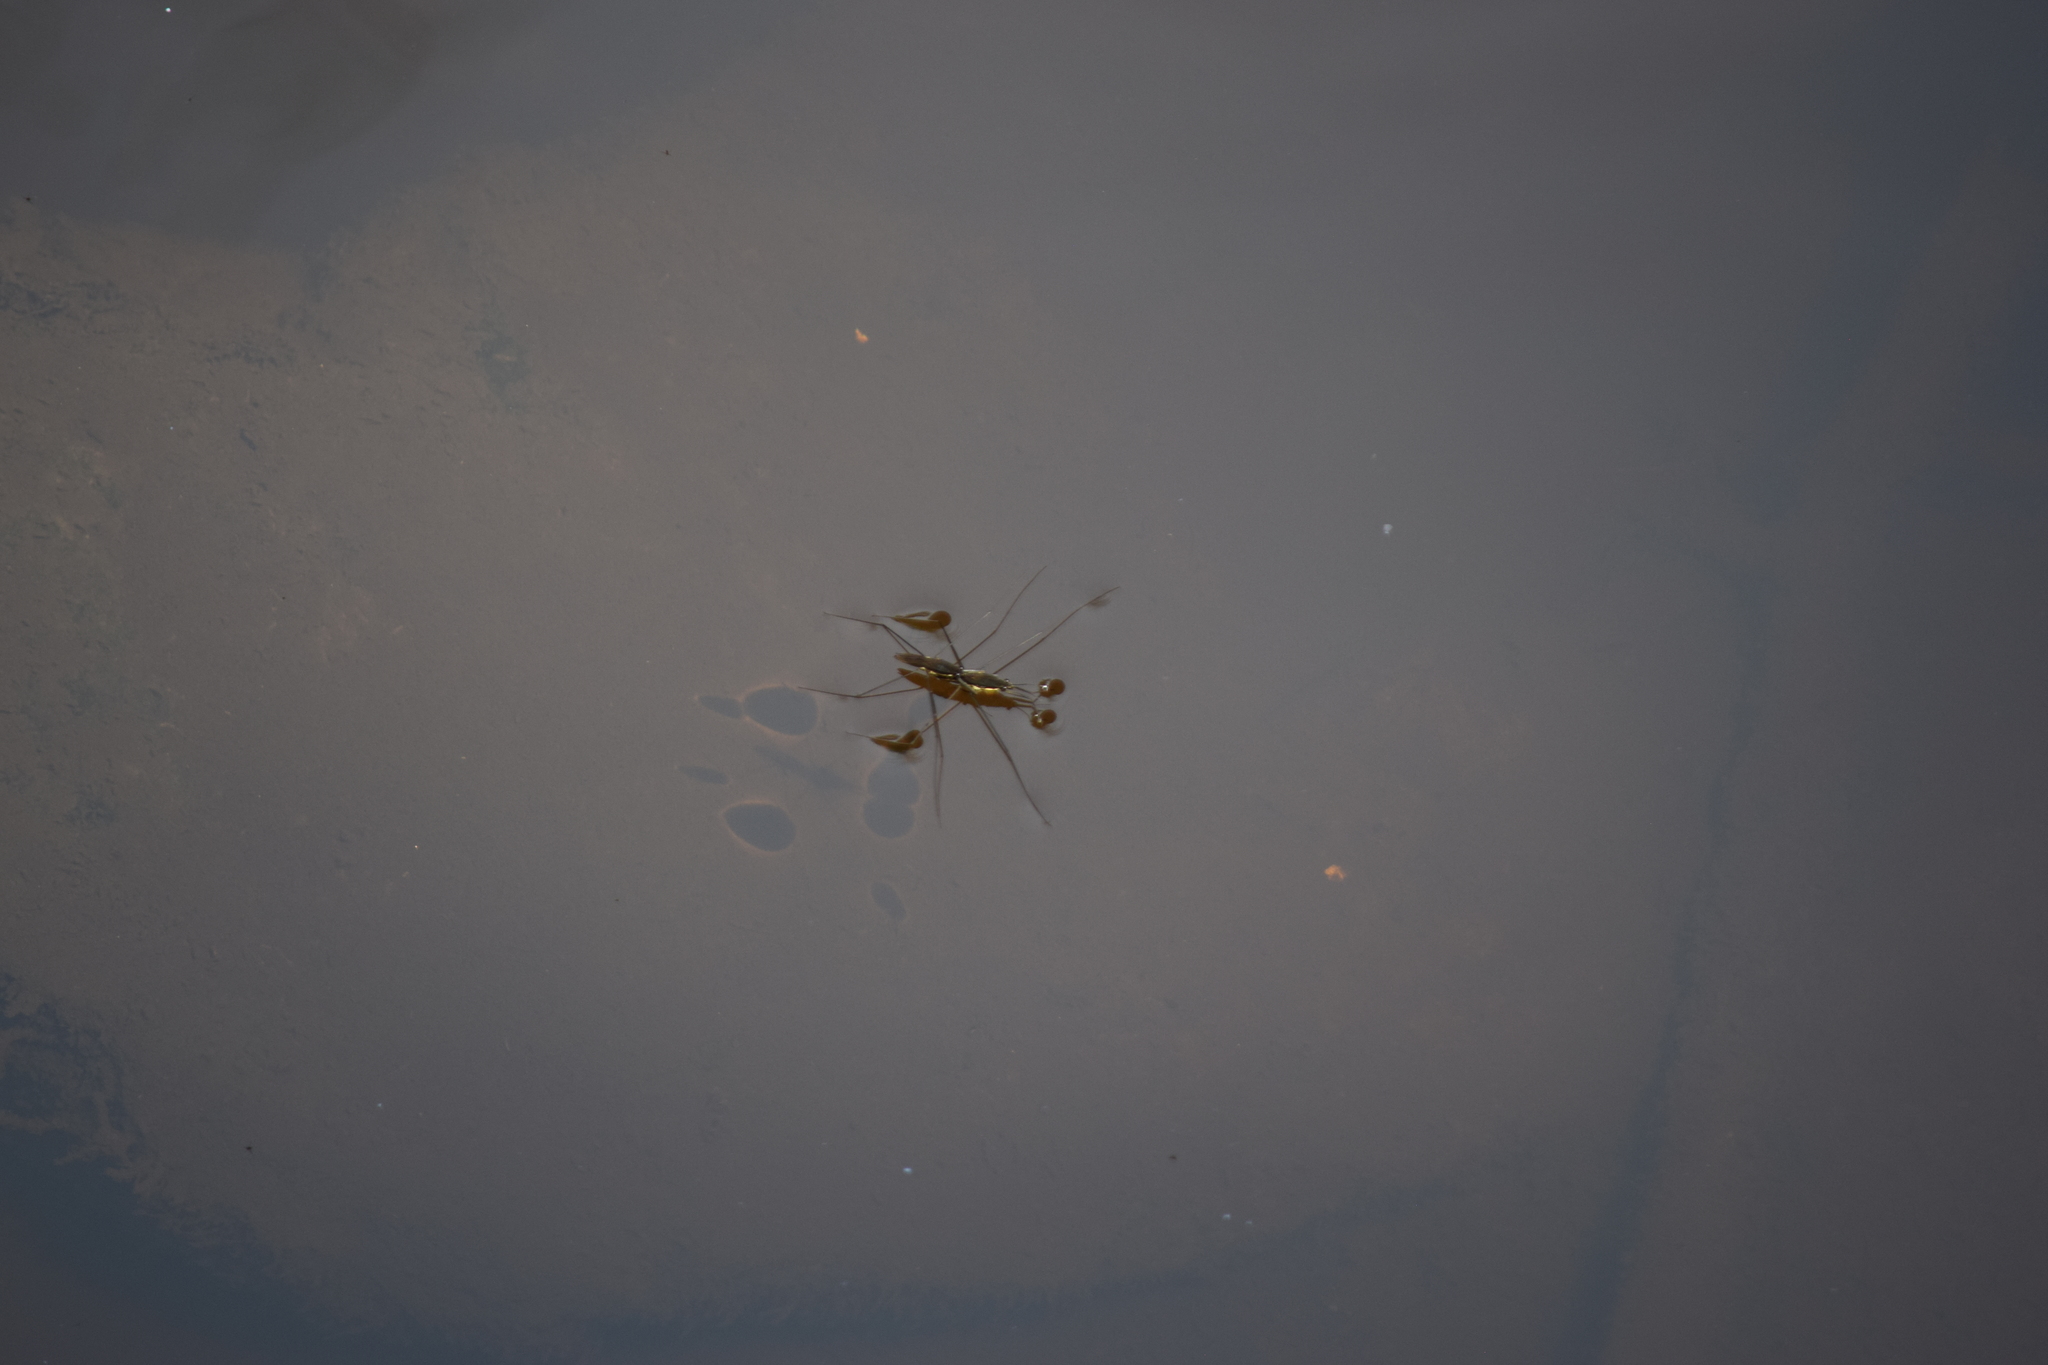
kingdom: Animalia
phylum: Arthropoda
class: Insecta
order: Hemiptera
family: Gerridae
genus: Aquarius
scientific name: Aquarius
